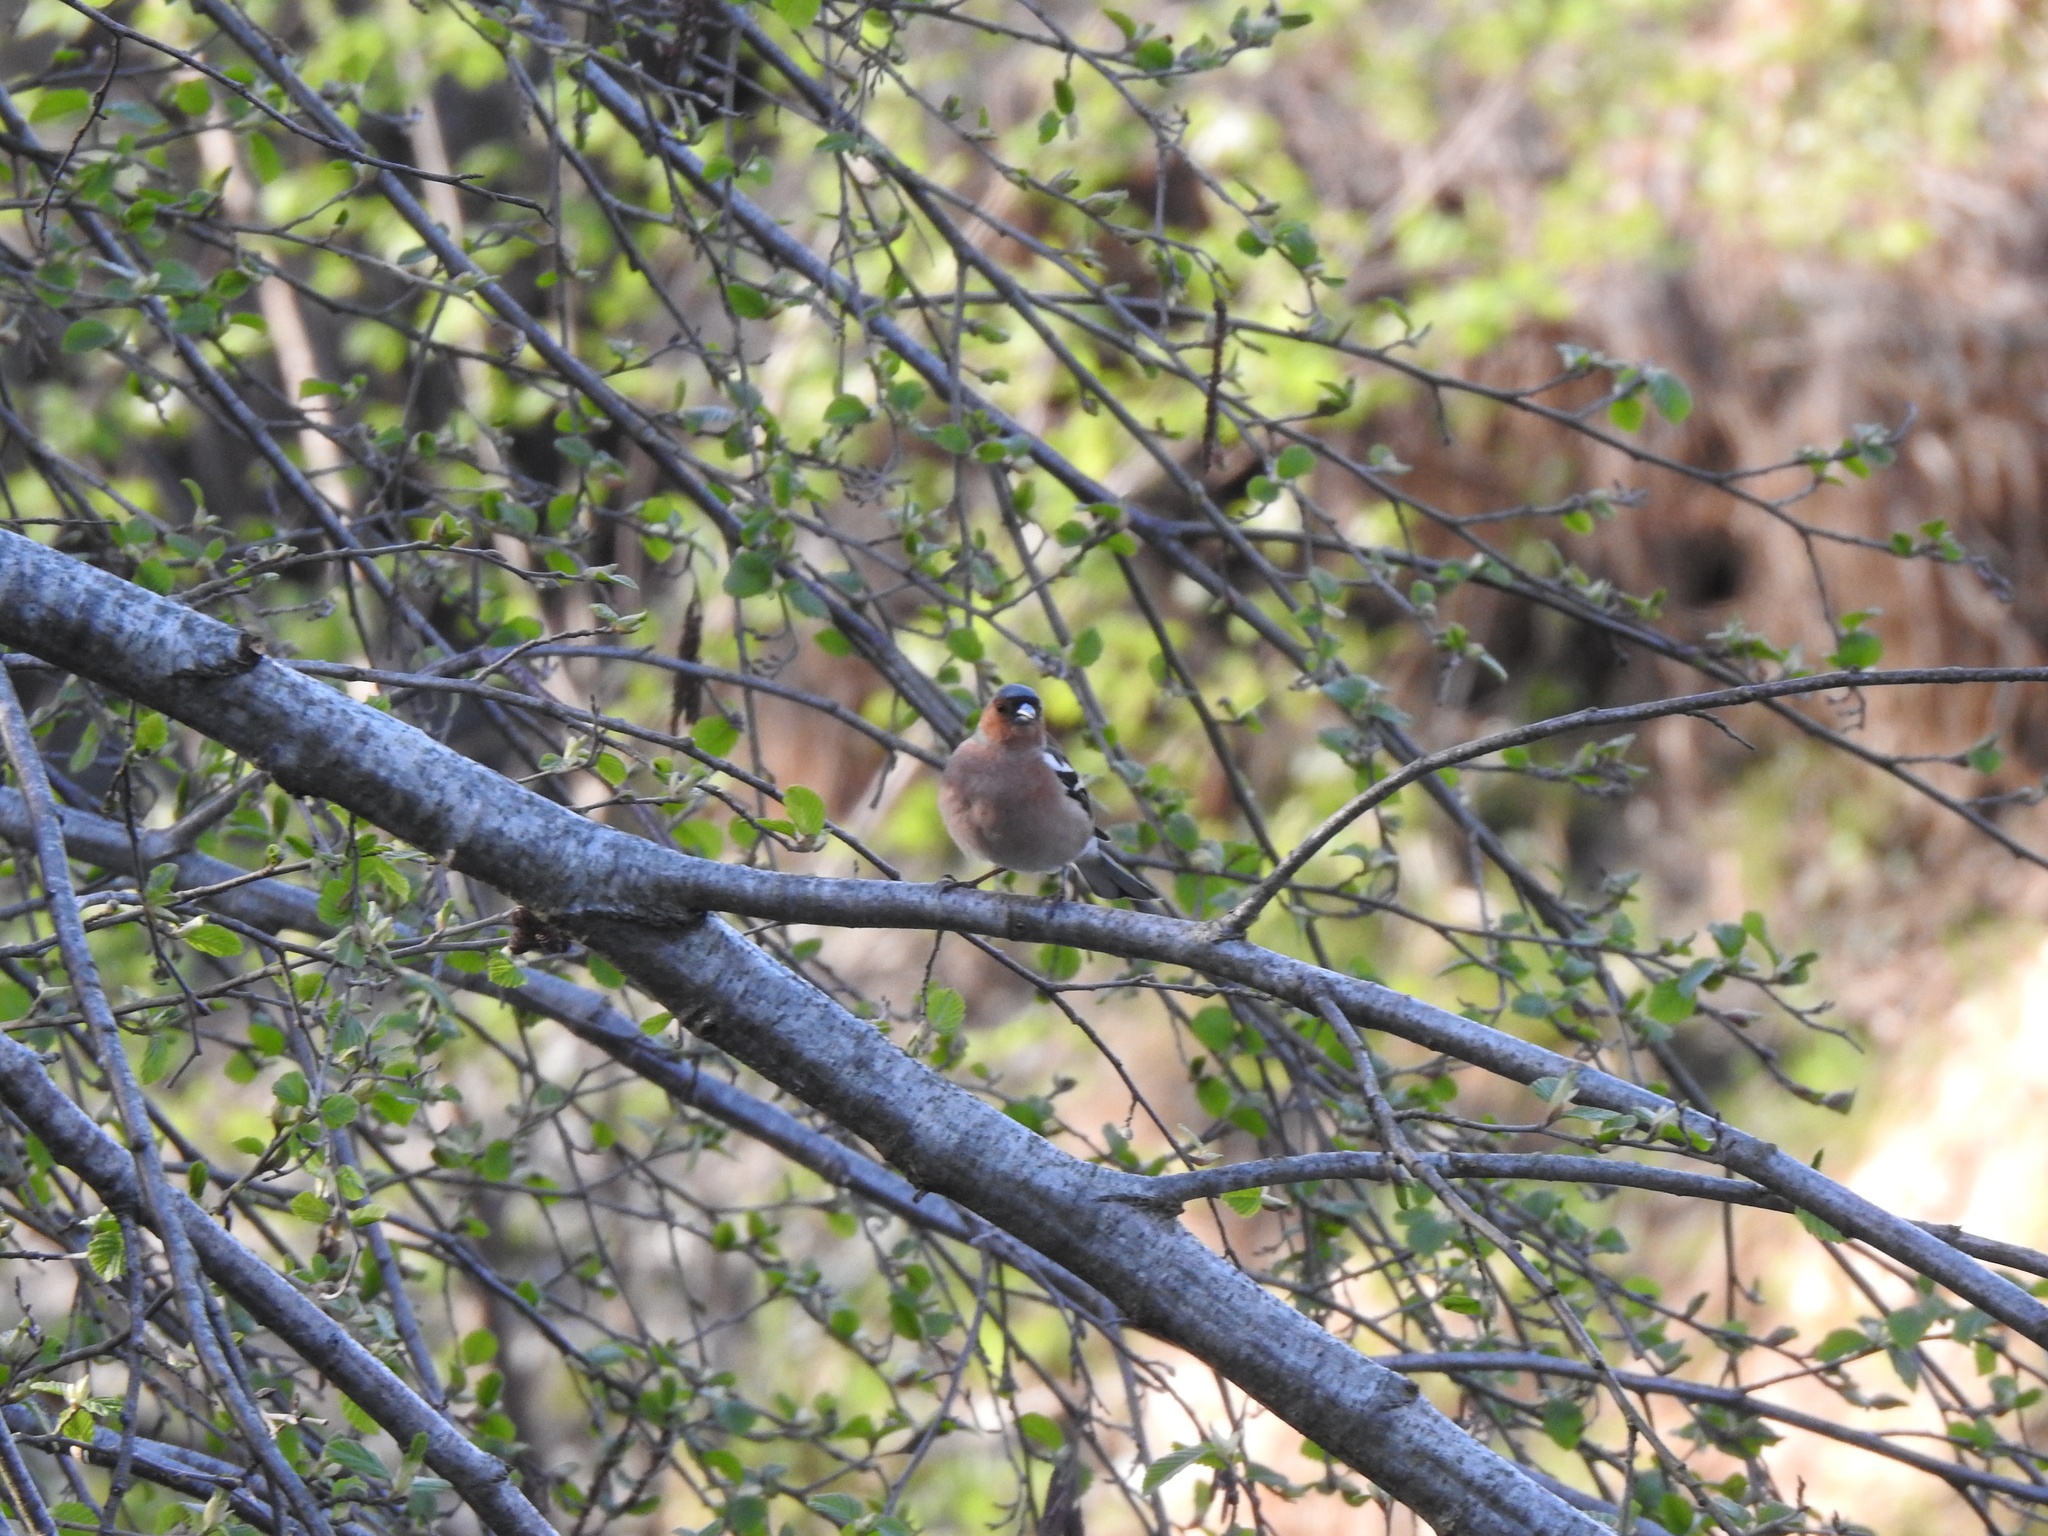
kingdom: Animalia
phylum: Chordata
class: Aves
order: Passeriformes
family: Fringillidae
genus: Fringilla
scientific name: Fringilla coelebs
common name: Common chaffinch
